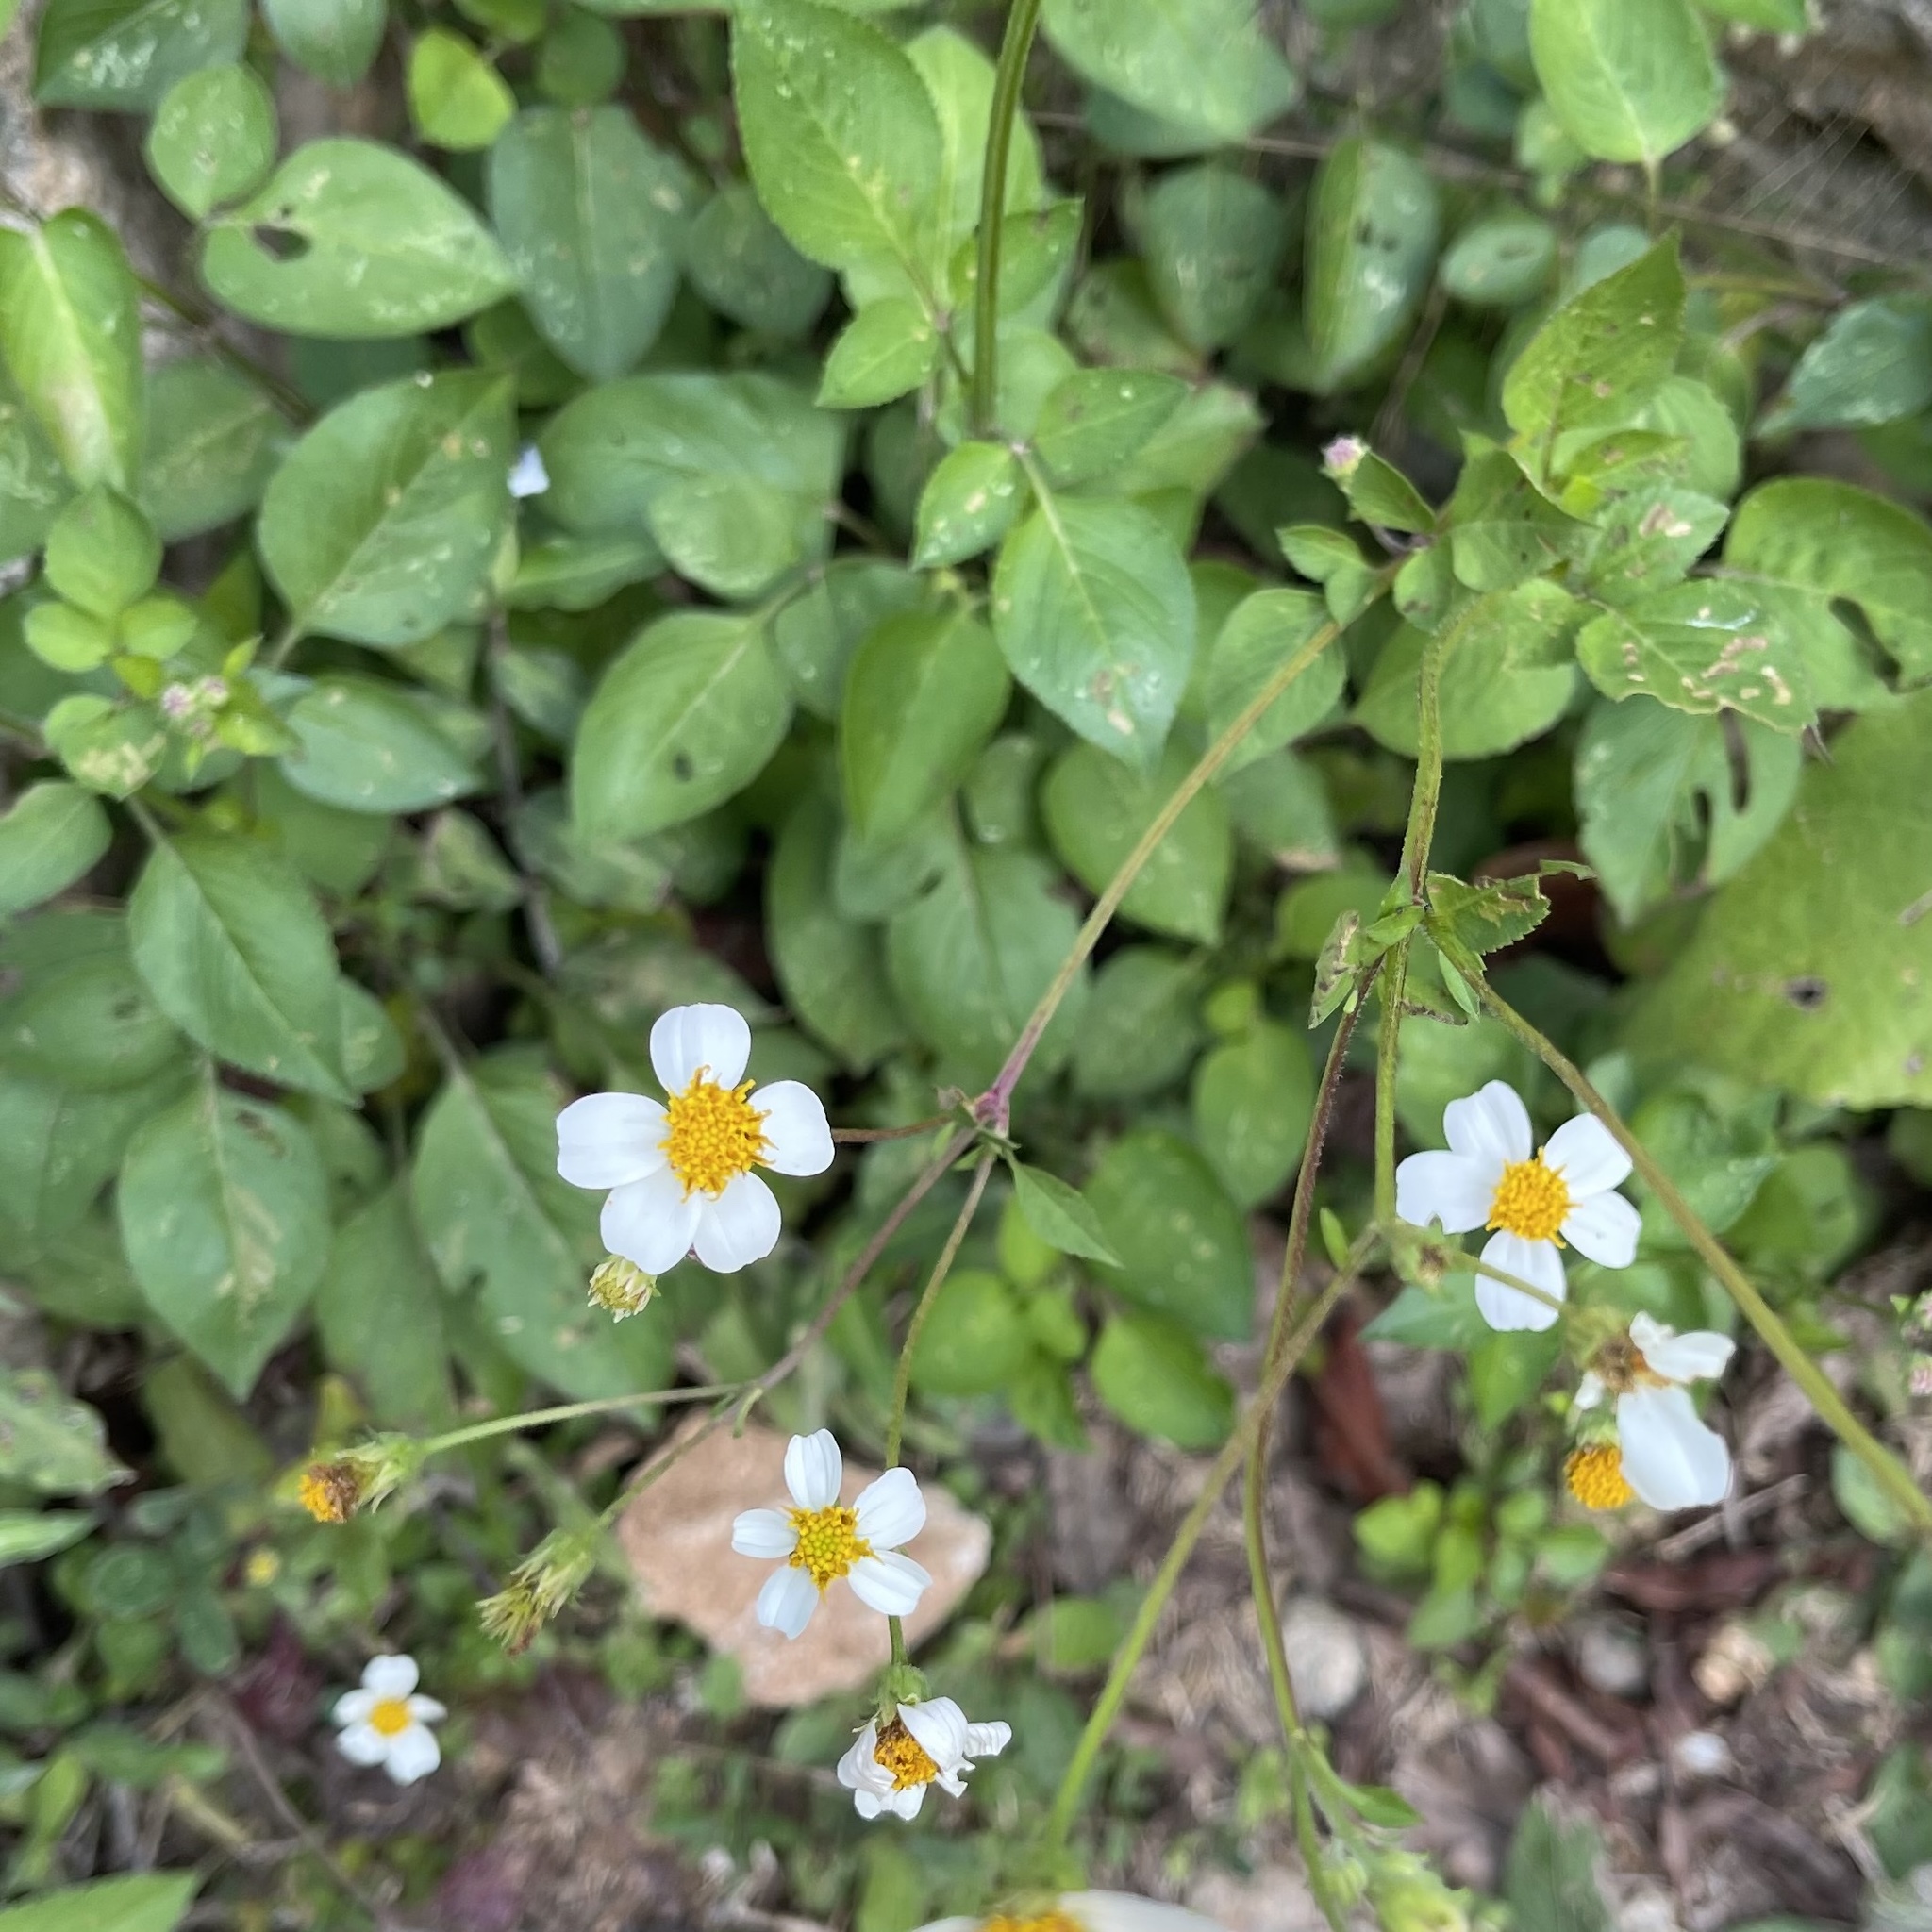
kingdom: Plantae
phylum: Tracheophyta
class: Magnoliopsida
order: Asterales
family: Asteraceae
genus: Bidens
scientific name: Bidens alba
